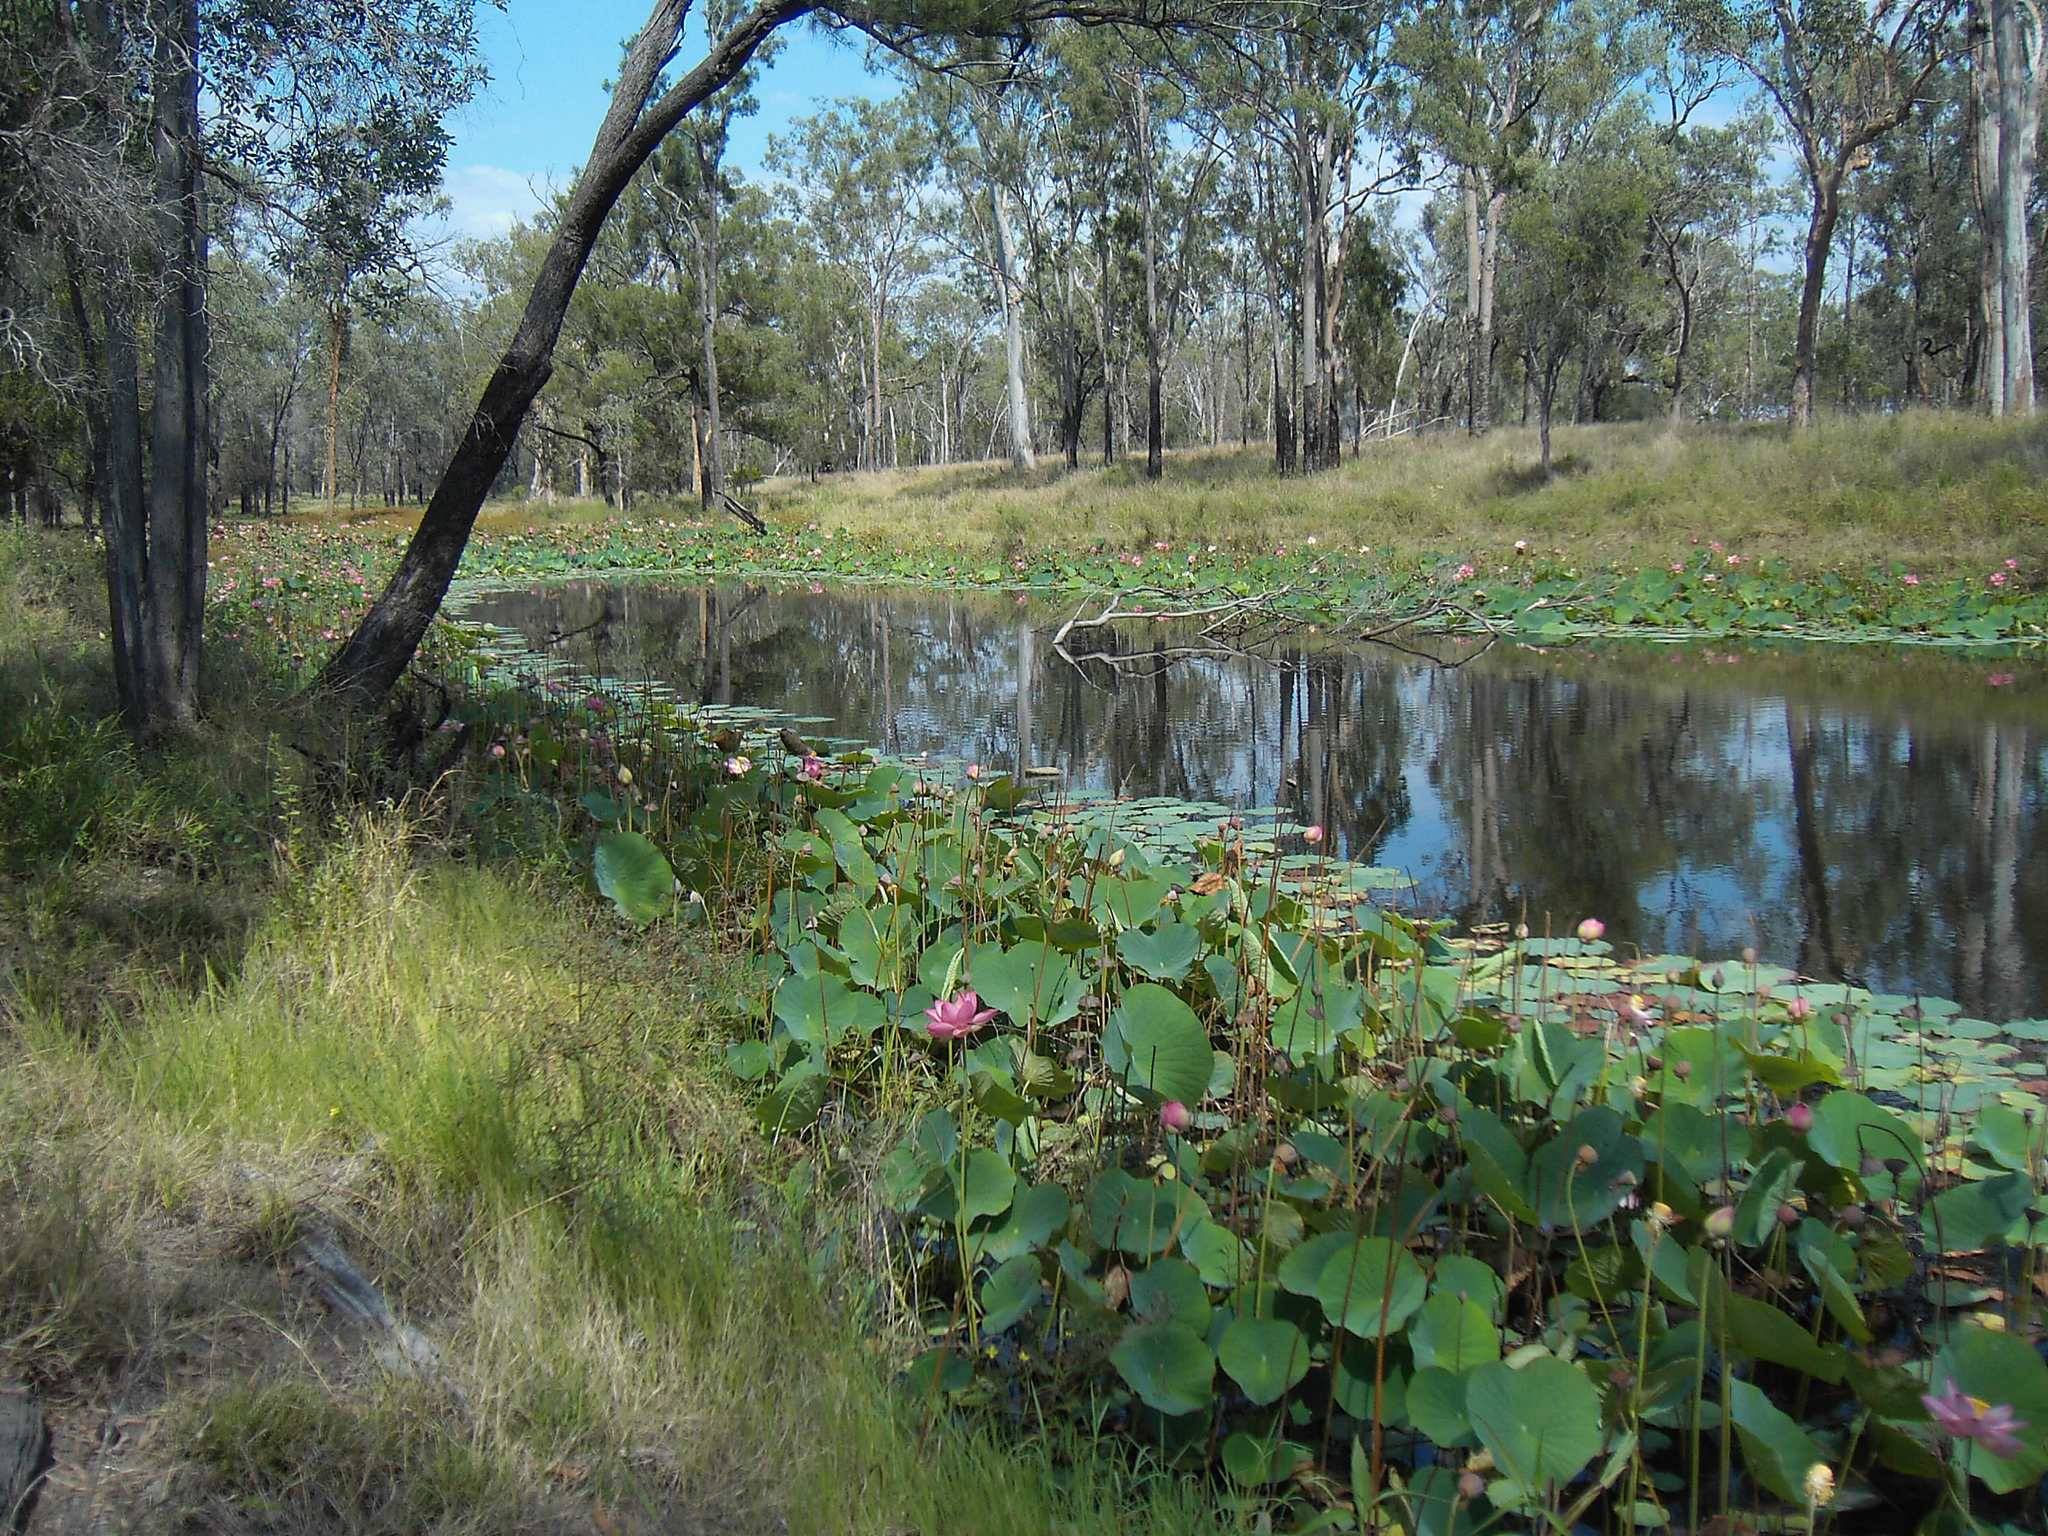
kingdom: Plantae
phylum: Tracheophyta
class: Magnoliopsida
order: Proteales
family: Nelumbonaceae
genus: Nelumbo
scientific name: Nelumbo nucifera
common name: Sacred lotus
